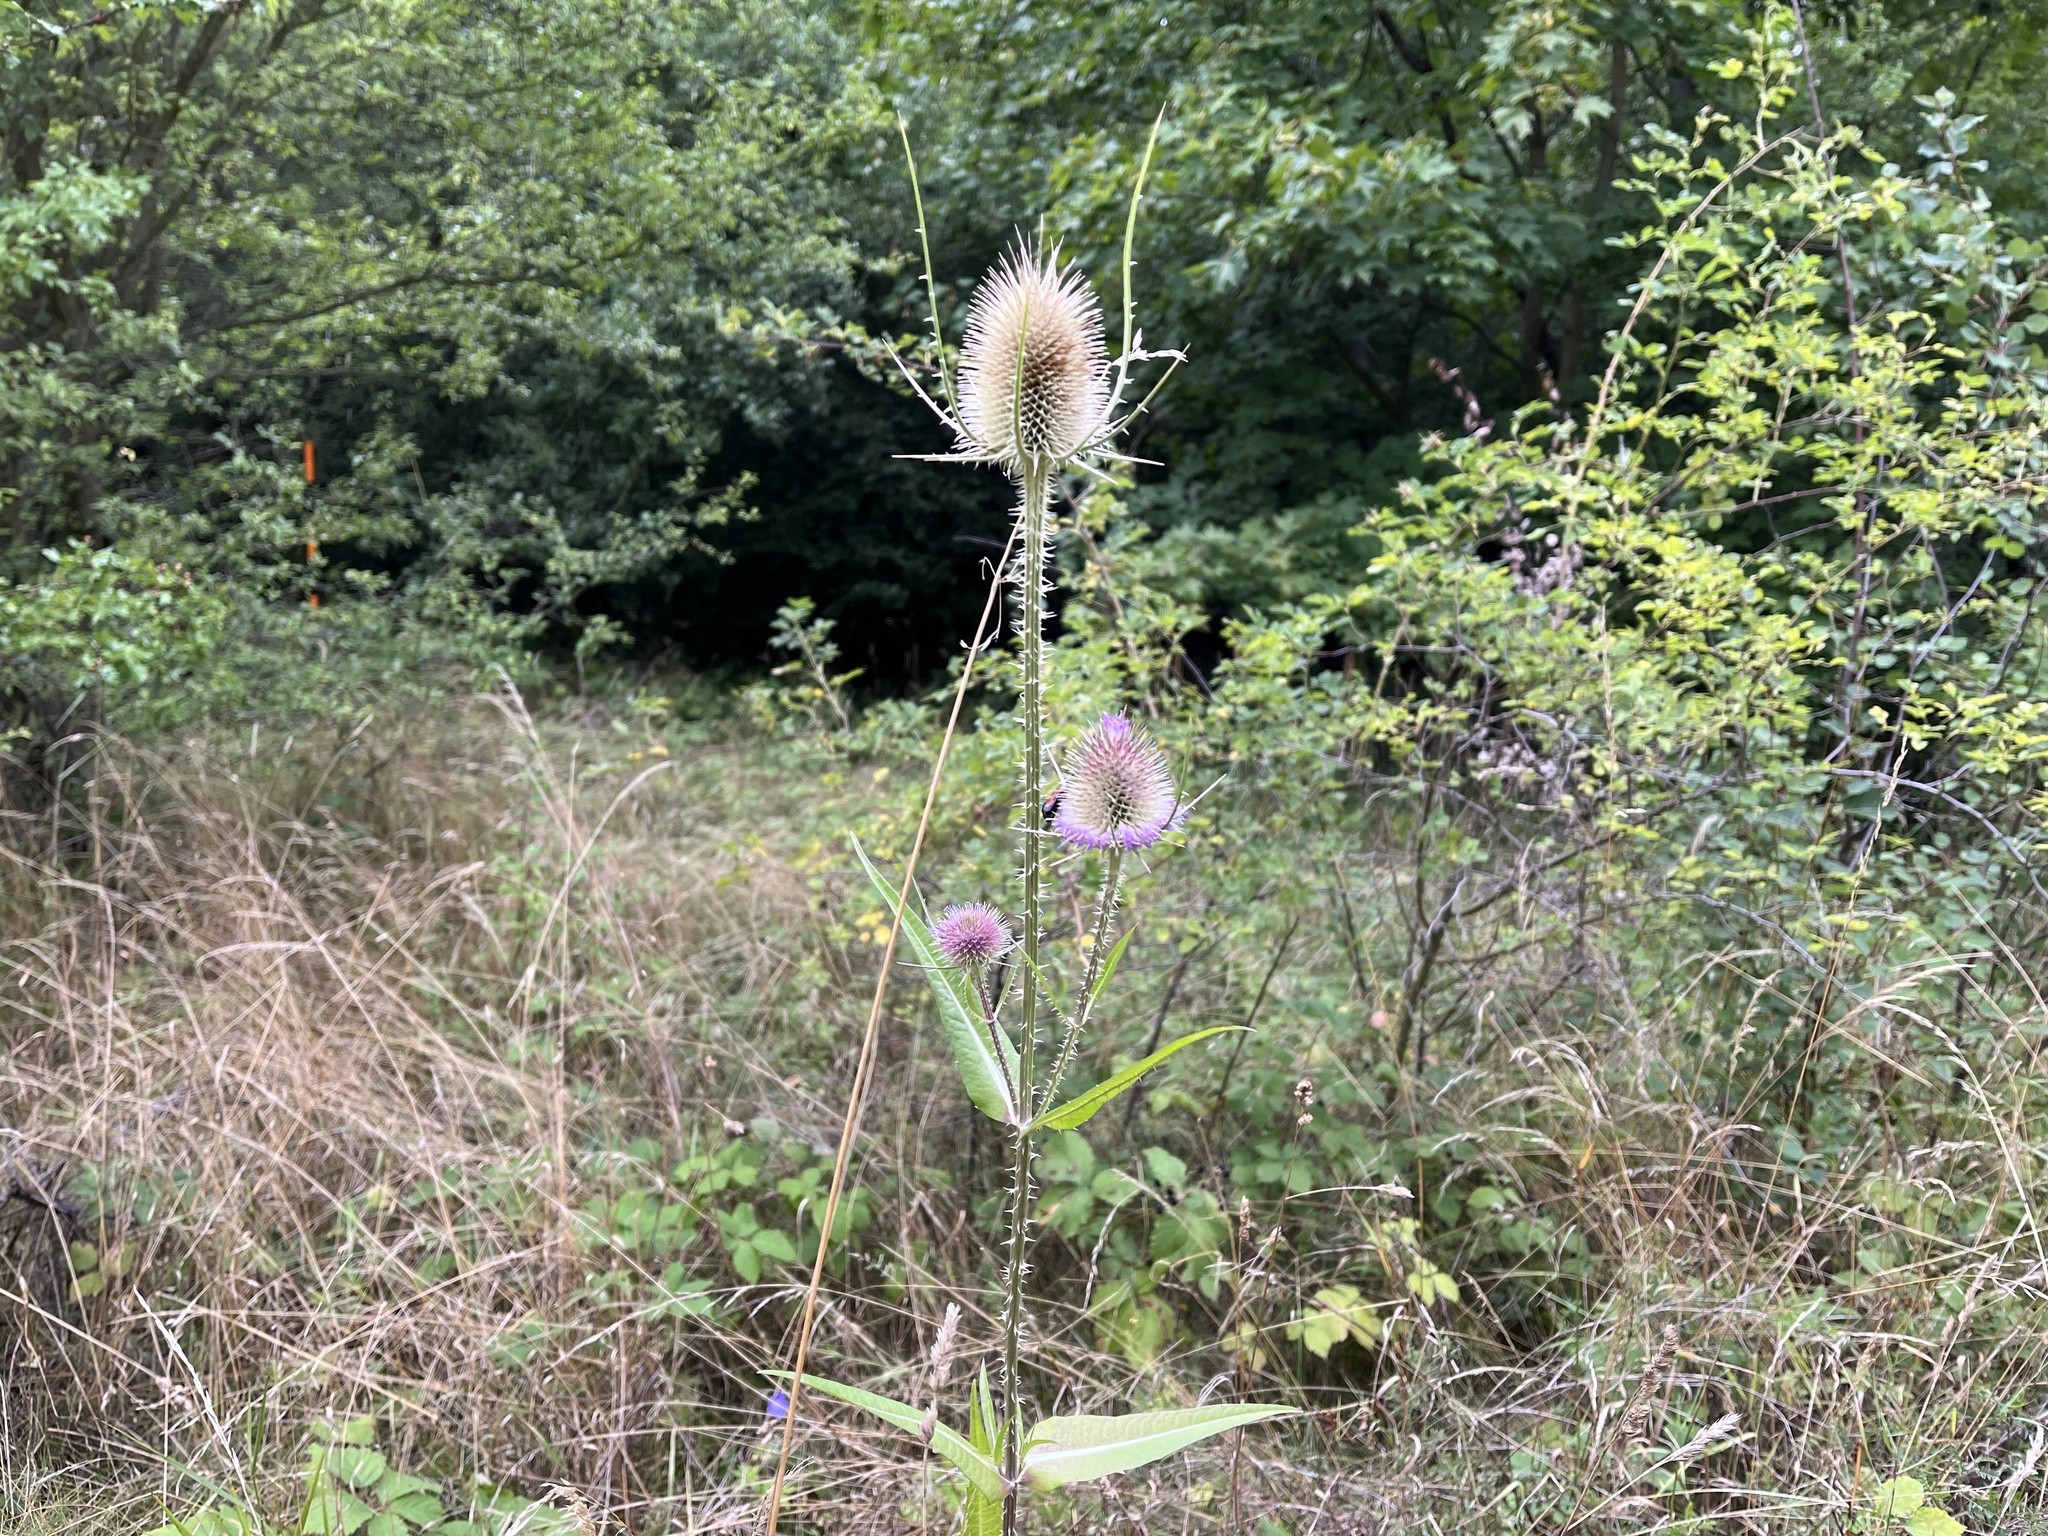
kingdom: Plantae
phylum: Tracheophyta
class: Magnoliopsida
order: Dipsacales
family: Caprifoliaceae
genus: Dipsacus
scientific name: Dipsacus fullonum
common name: Teasel
